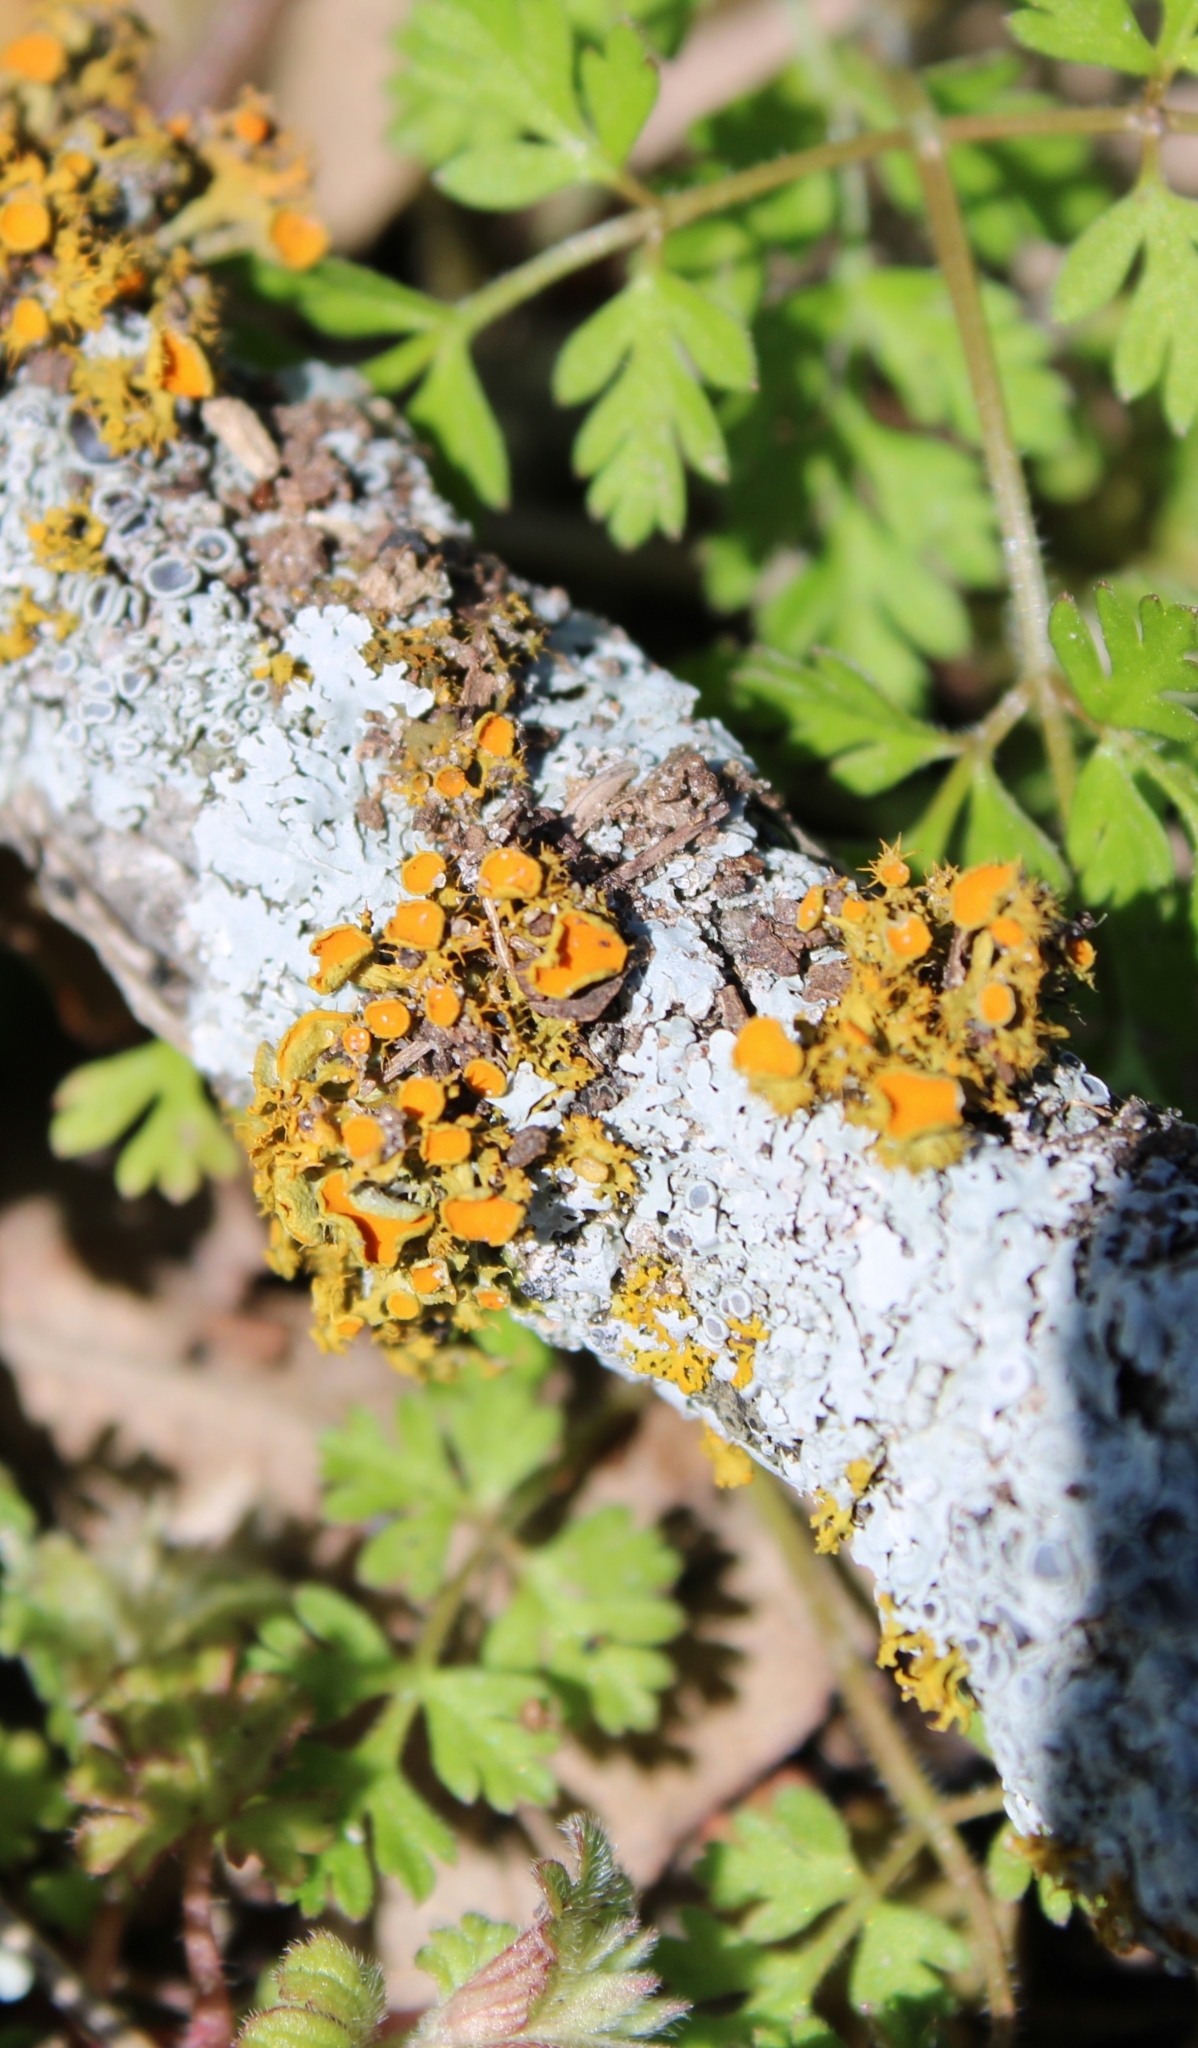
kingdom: Fungi
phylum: Ascomycota
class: Lecanoromycetes
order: Teloschistales
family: Teloschistaceae
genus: Niorma
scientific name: Niorma chrysophthalma
